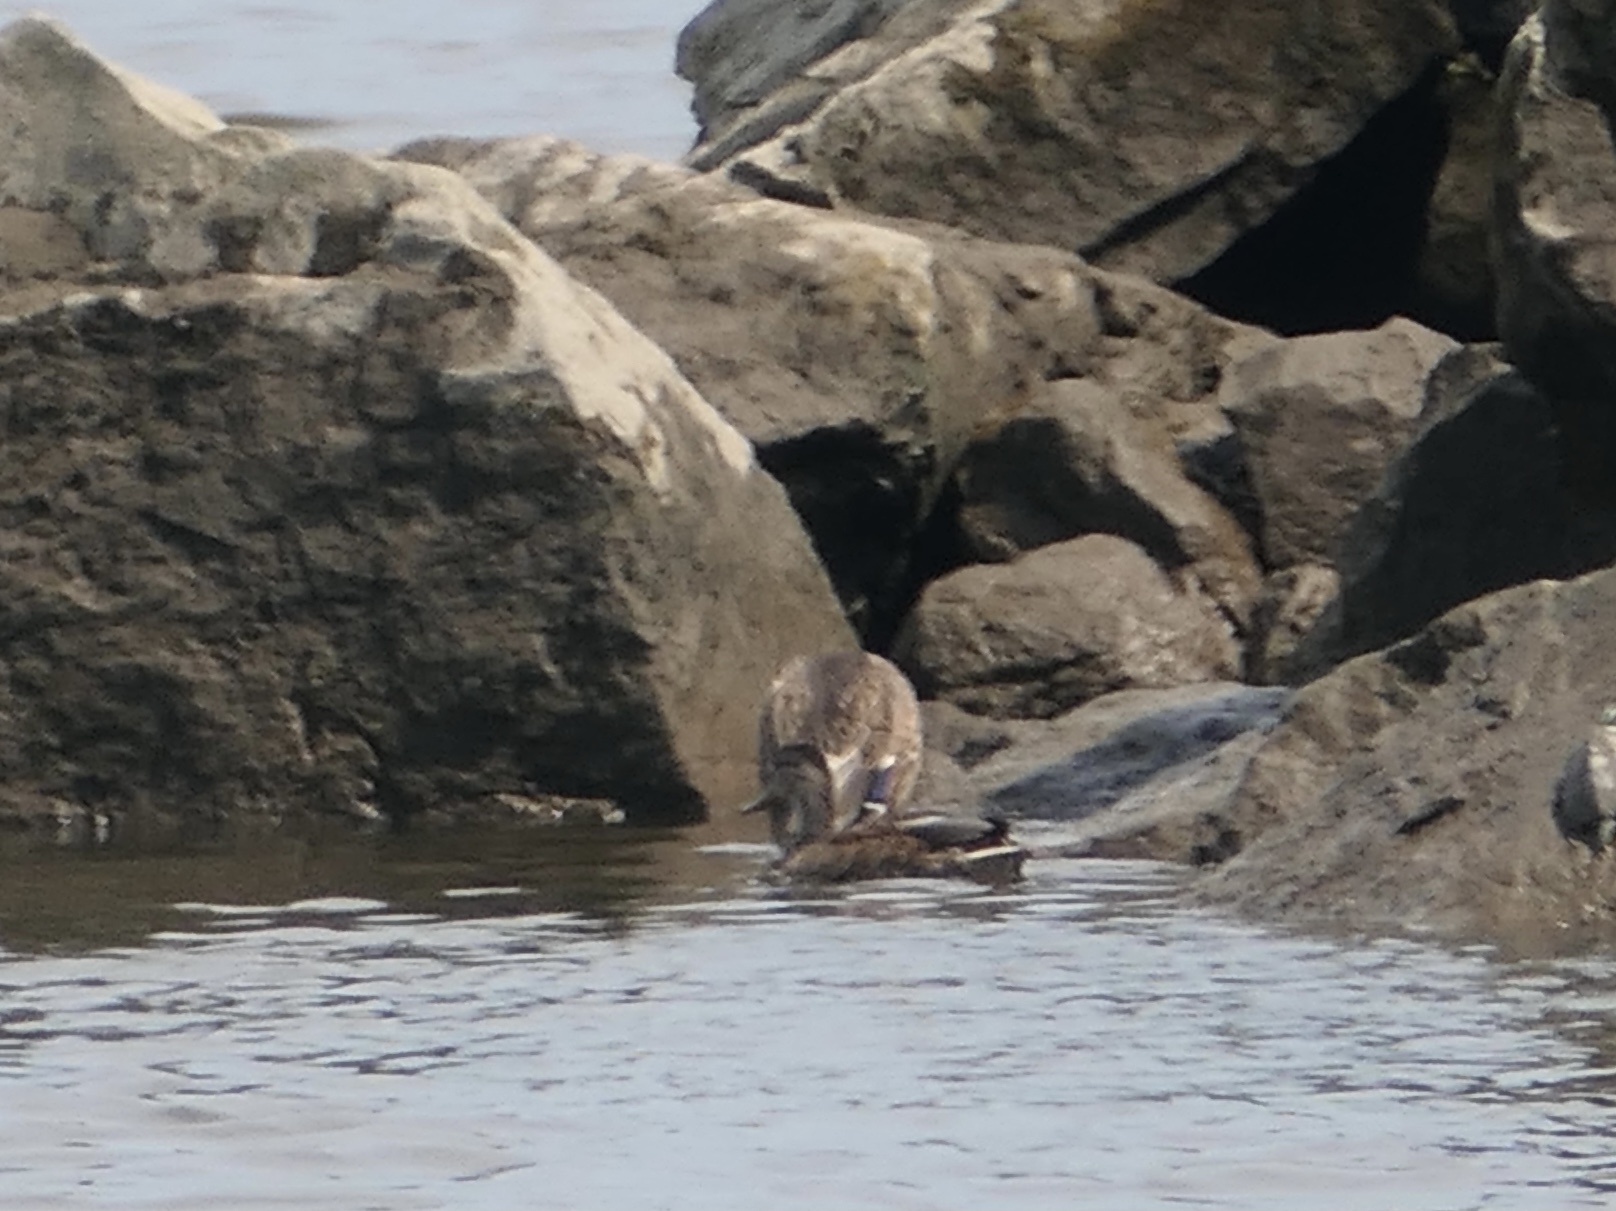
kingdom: Animalia
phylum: Chordata
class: Aves
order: Anseriformes
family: Anatidae
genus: Anas
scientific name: Anas platyrhynchos
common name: Mallard
